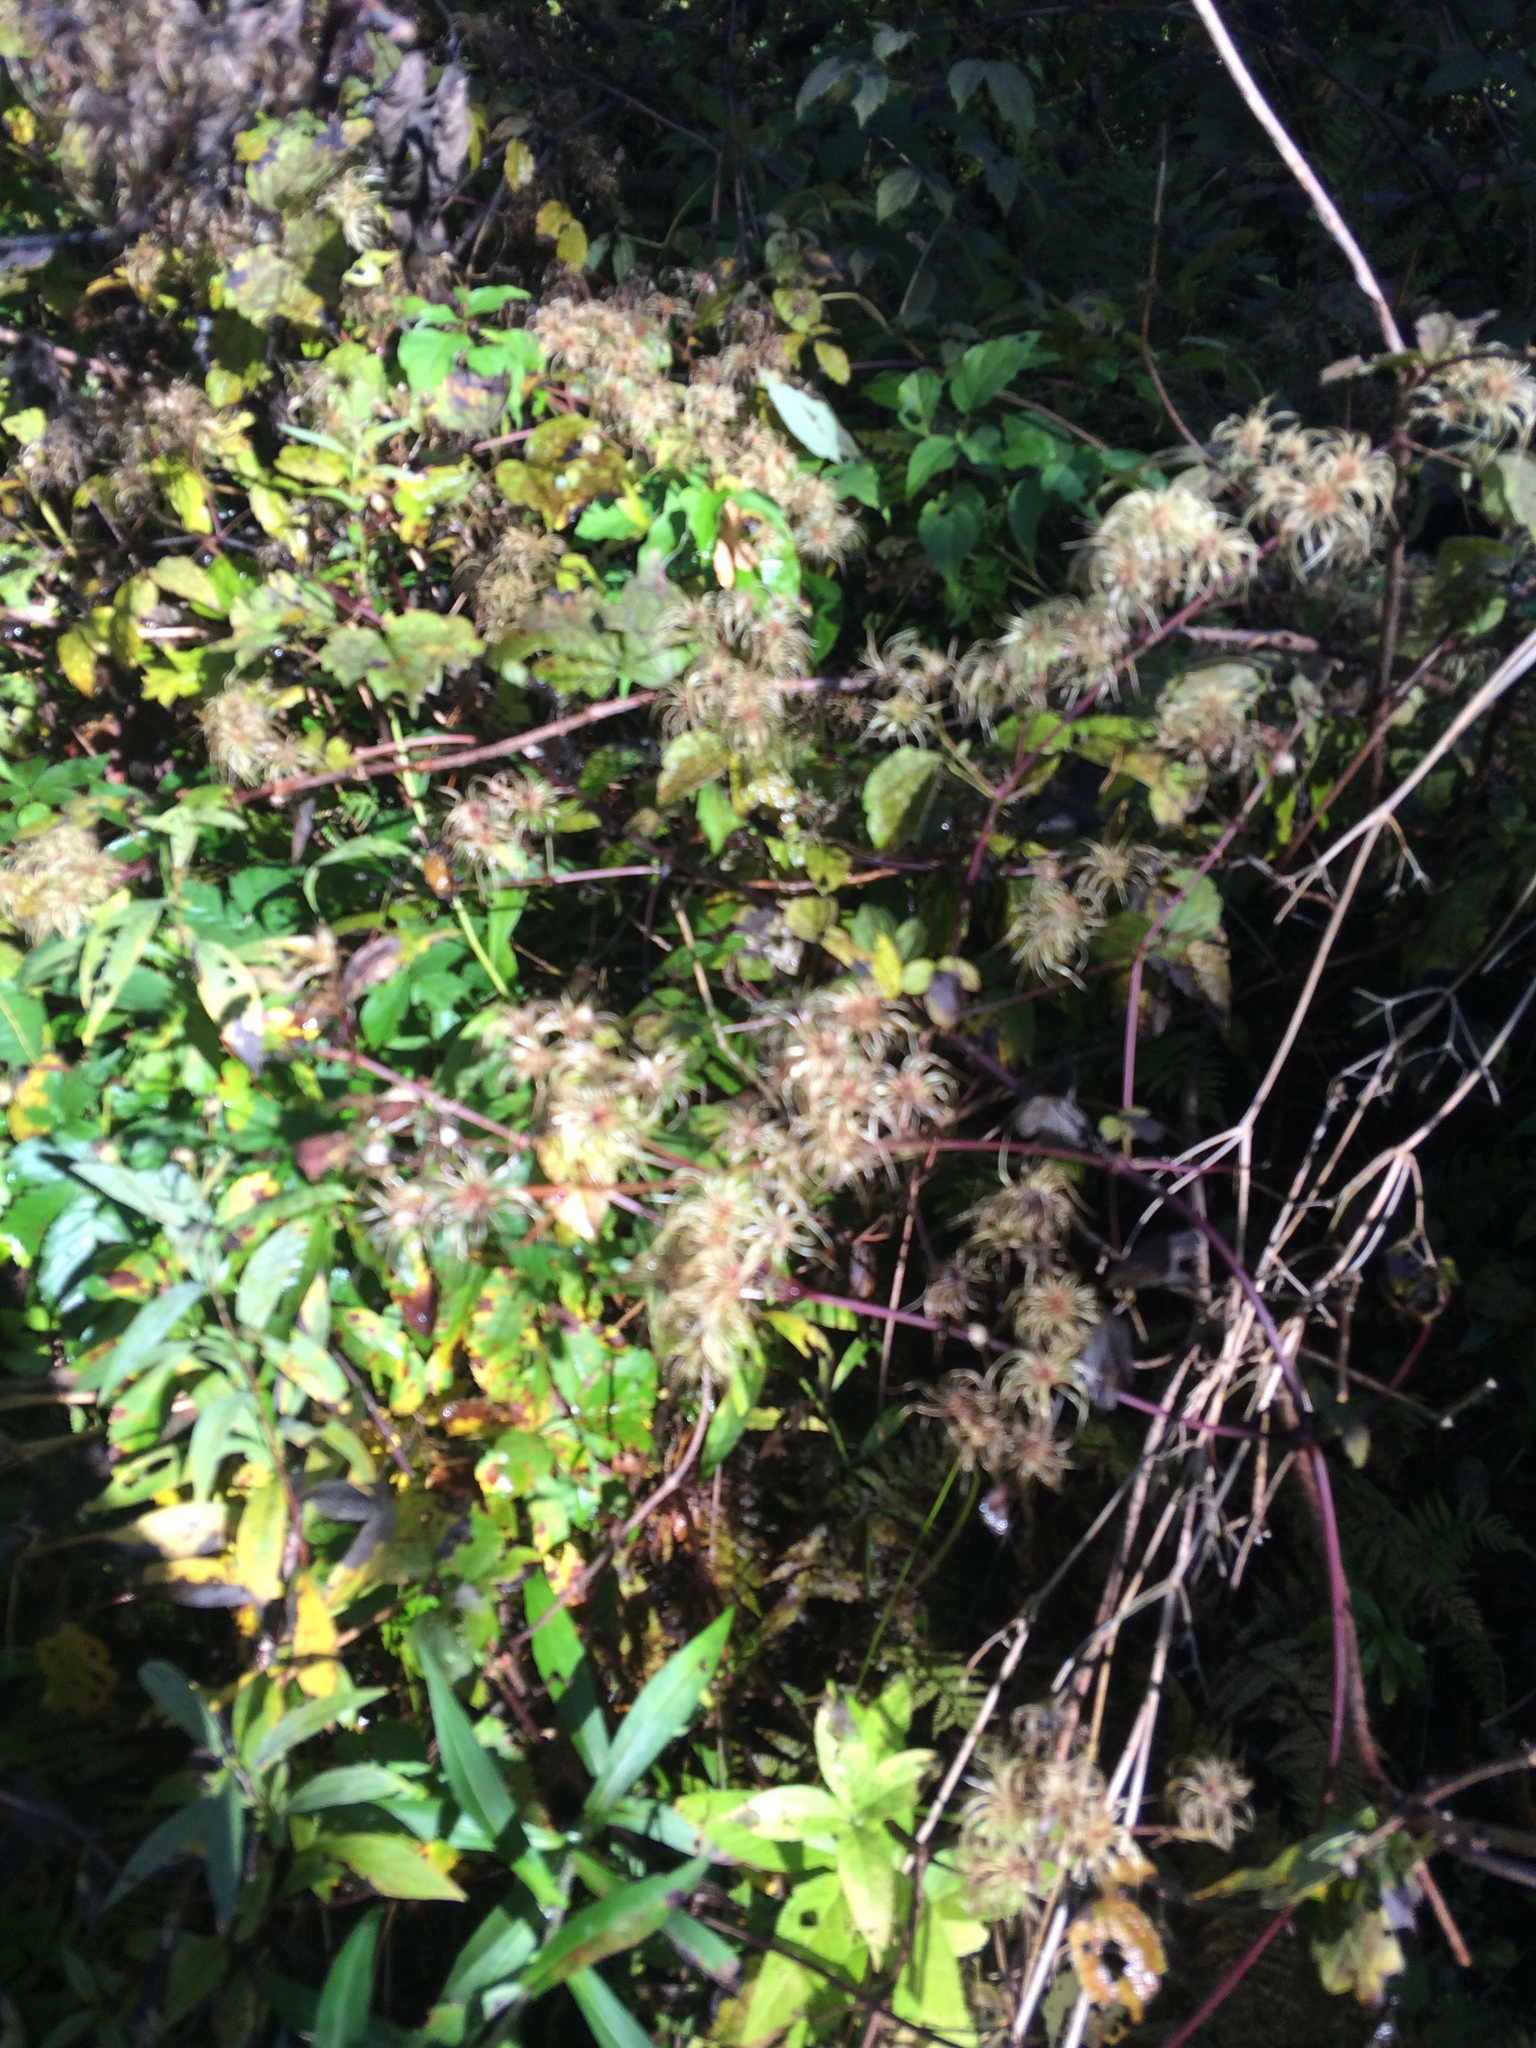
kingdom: Plantae
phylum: Tracheophyta
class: Magnoliopsida
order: Ranunculales
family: Ranunculaceae
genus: Clematis
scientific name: Clematis virginiana
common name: Virgin's-bower
